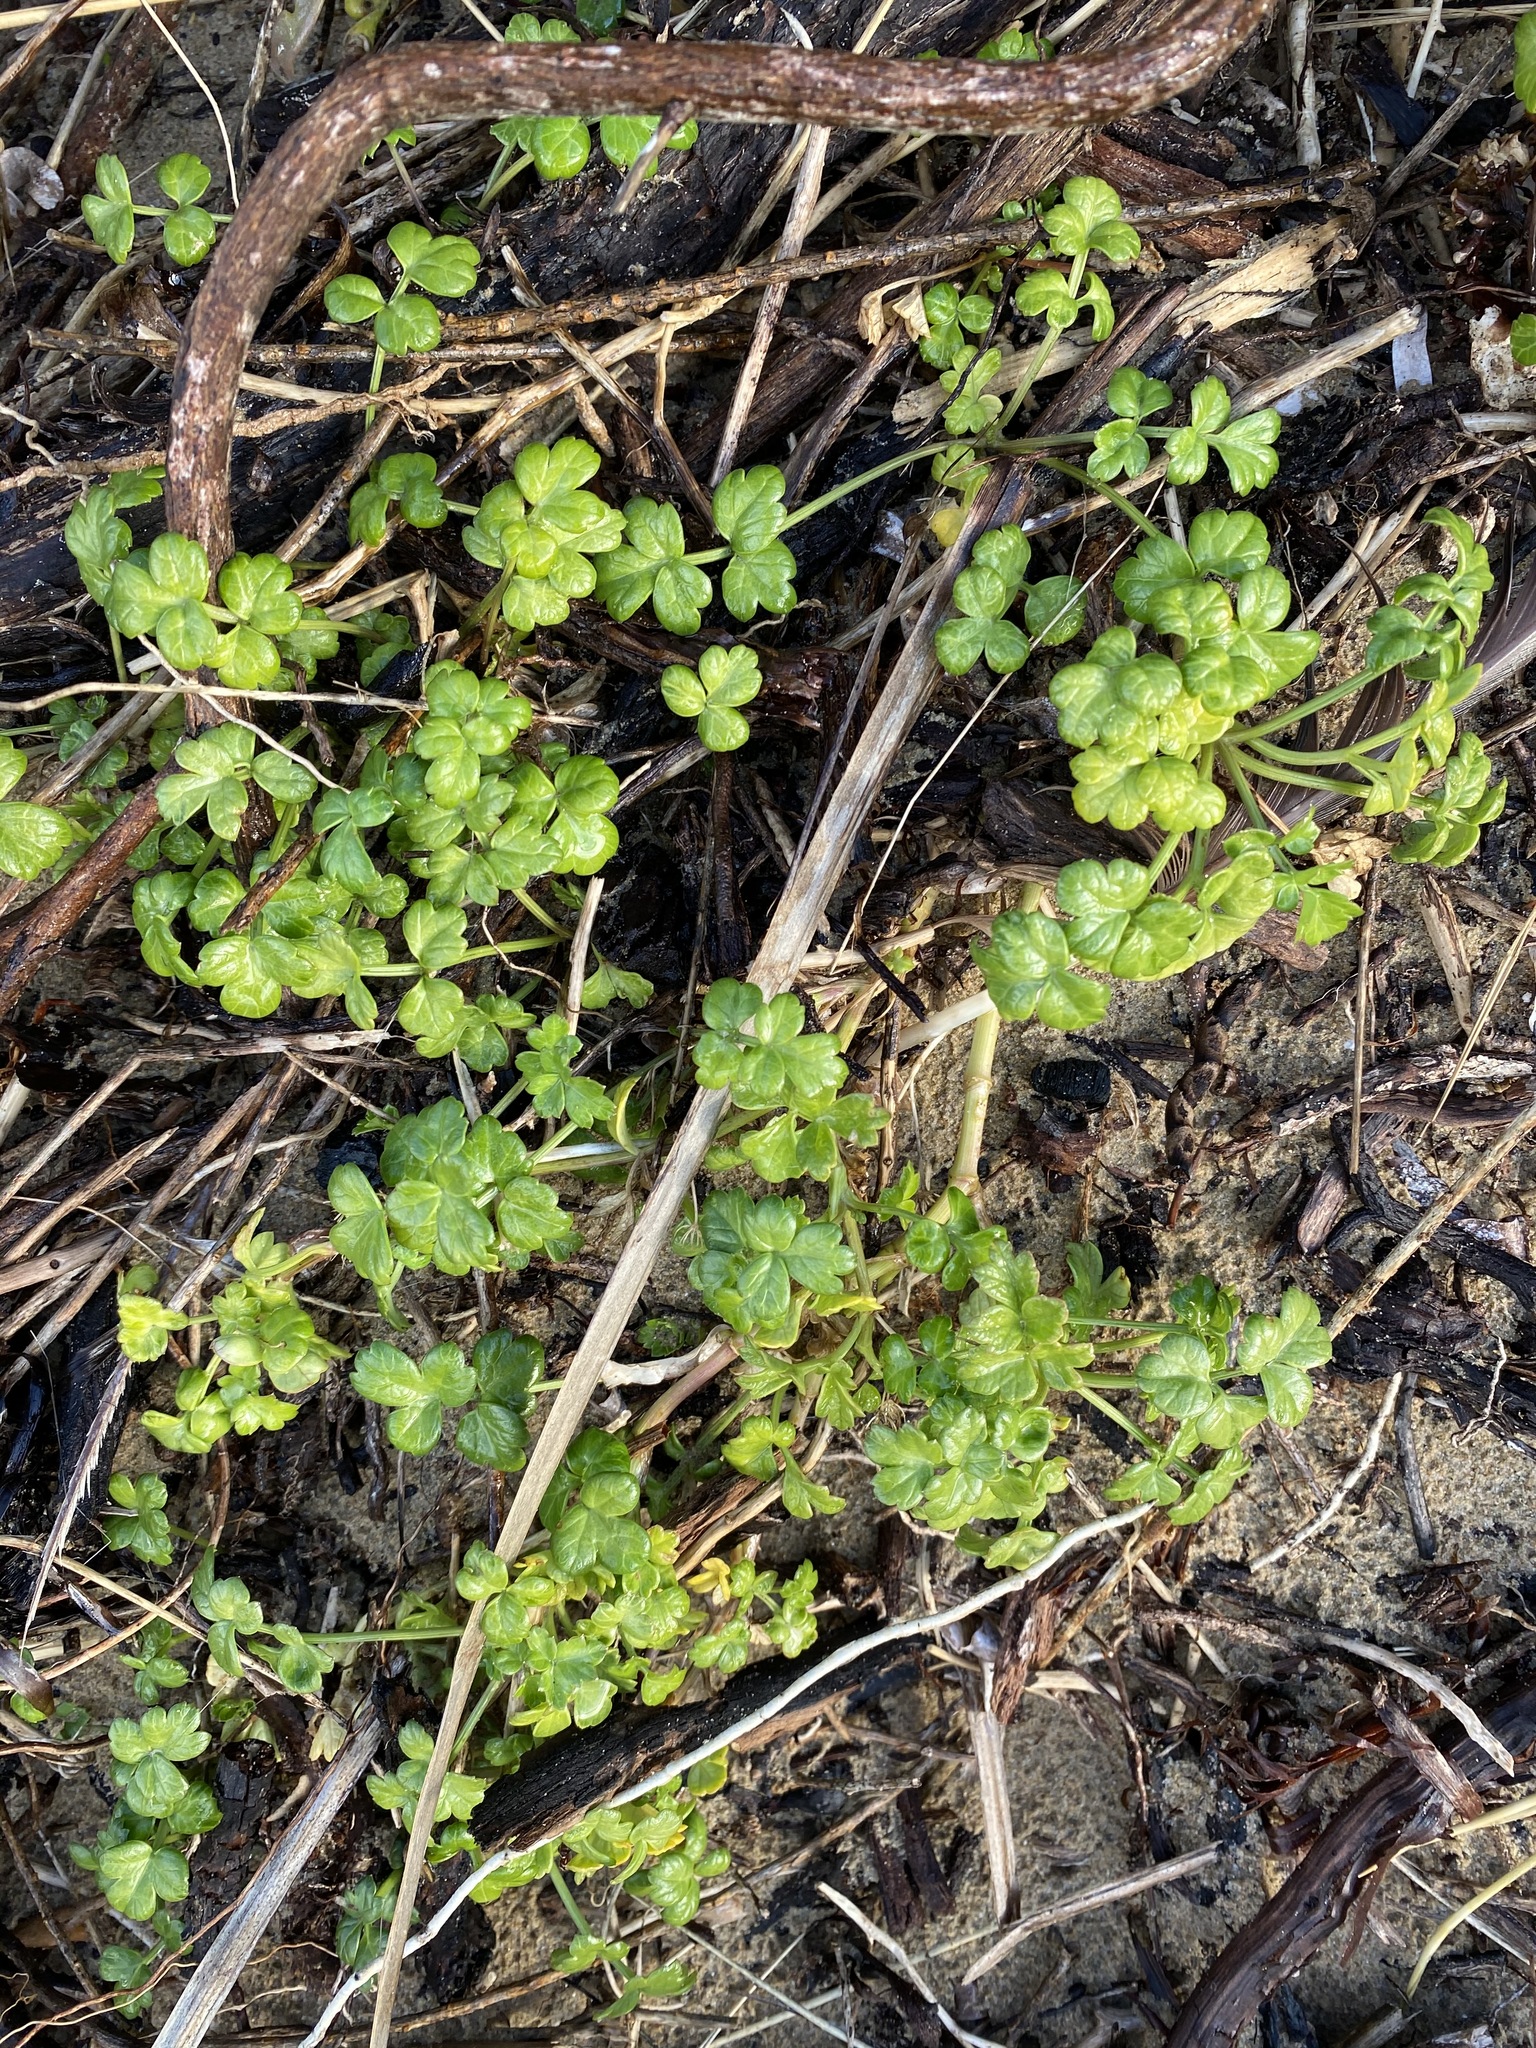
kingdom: Plantae
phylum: Tracheophyta
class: Magnoliopsida
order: Apiales
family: Apiaceae
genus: Apium
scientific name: Apium prostratum
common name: Prostrate marshwort
